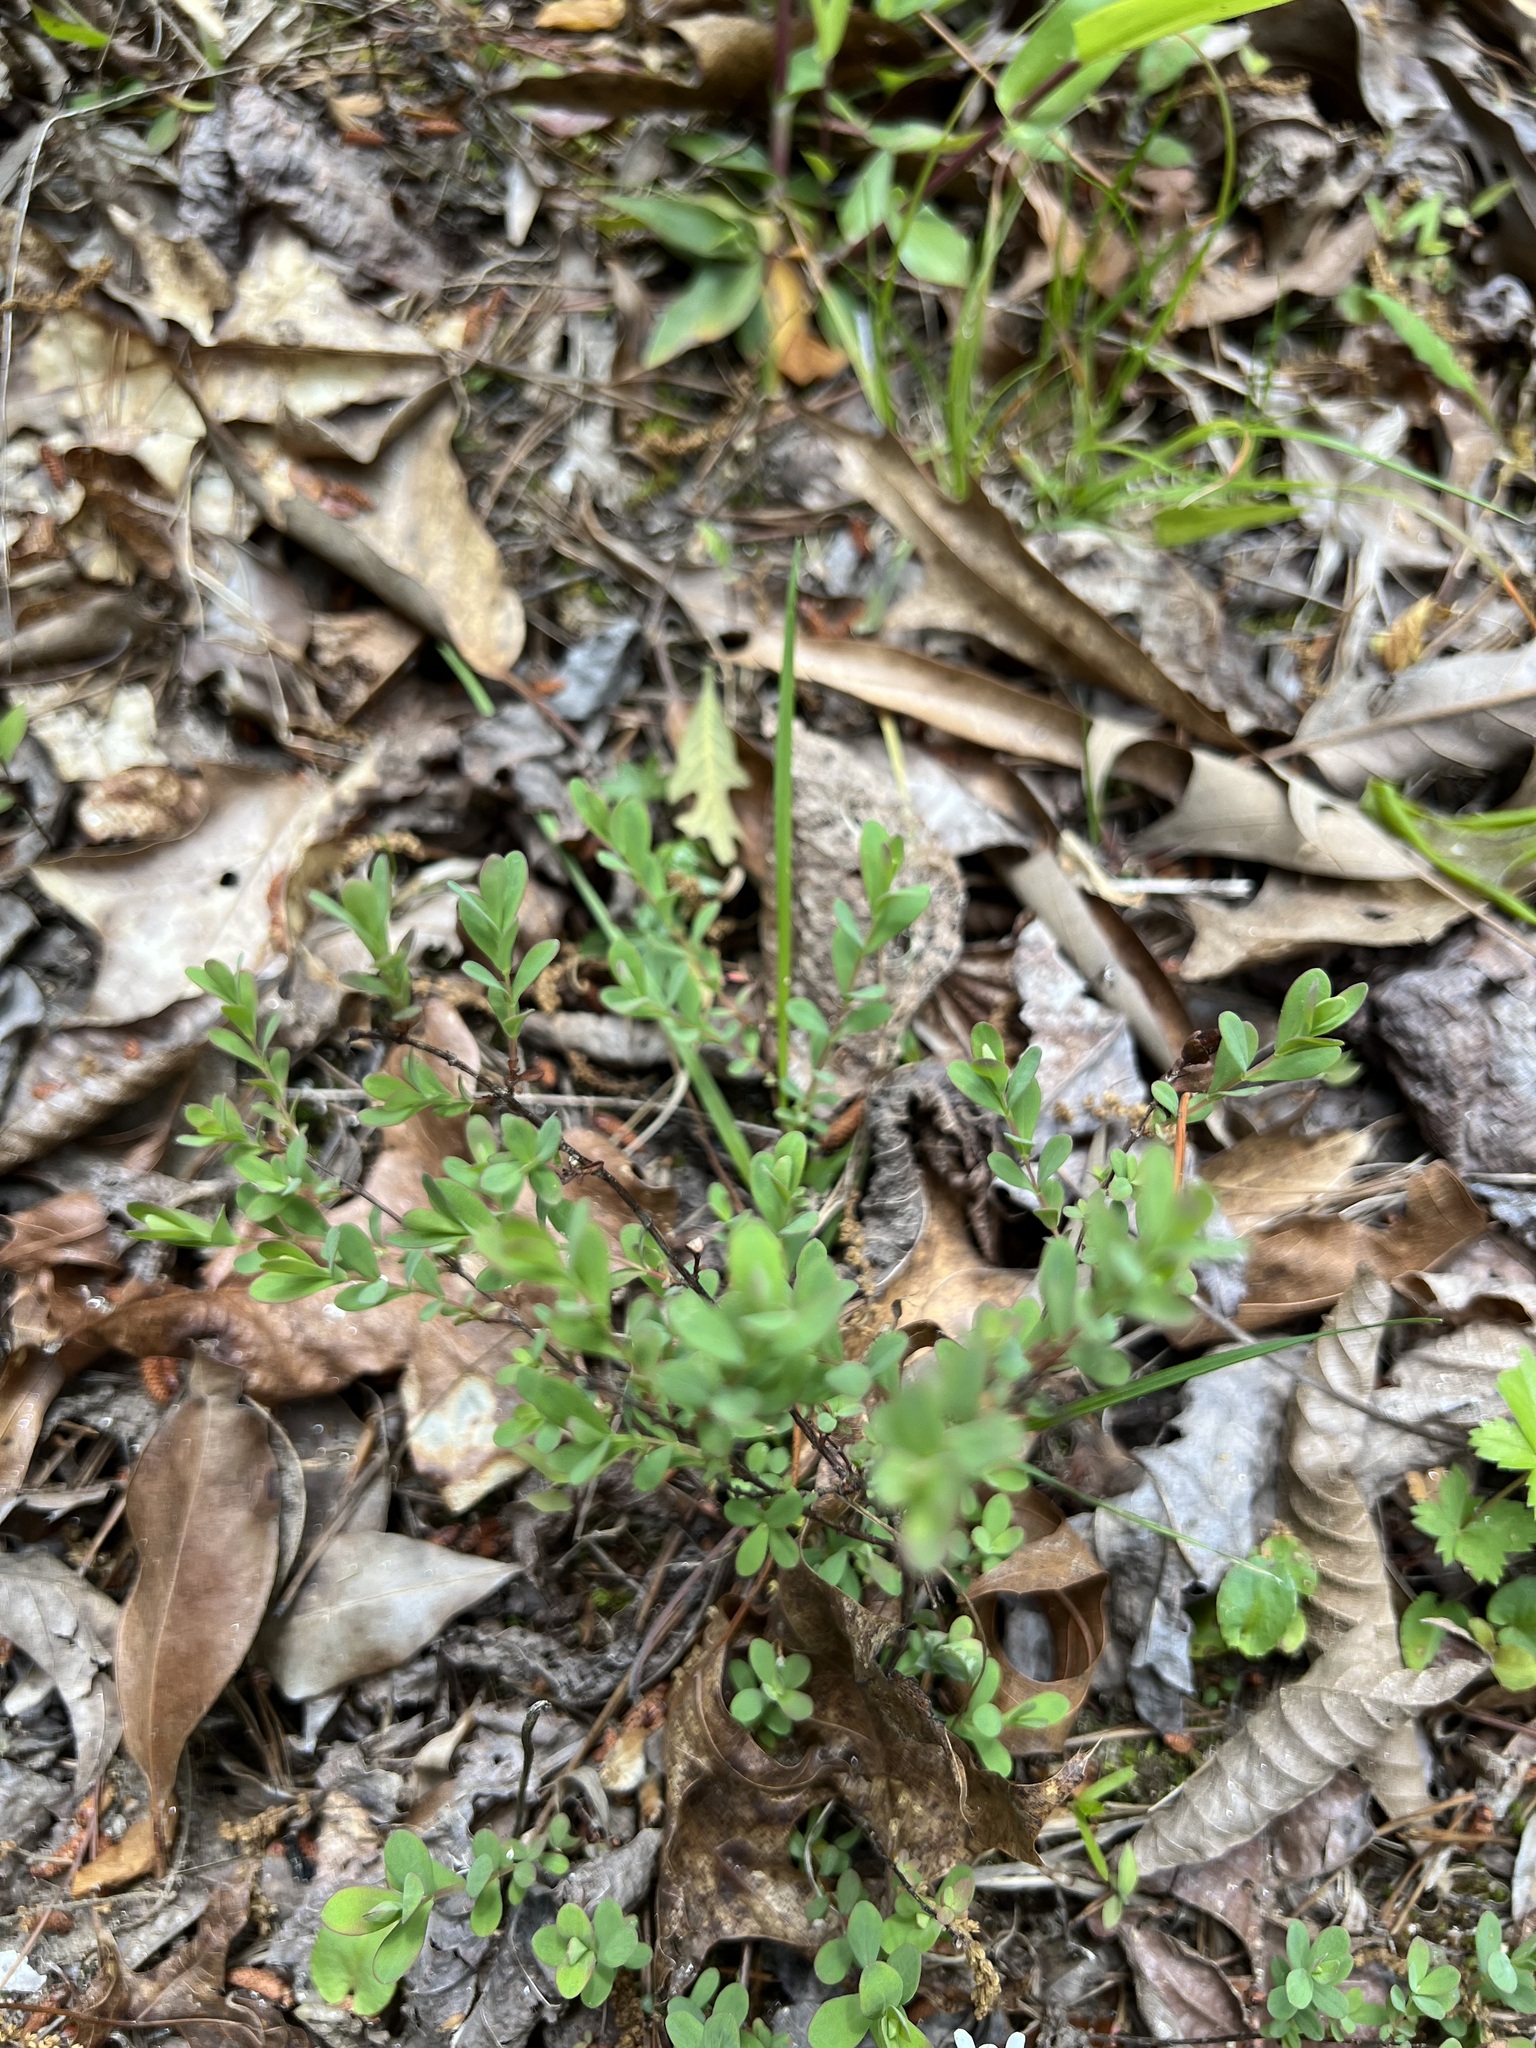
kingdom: Plantae
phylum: Tracheophyta
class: Magnoliopsida
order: Malpighiales
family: Hypericaceae
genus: Hypericum
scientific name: Hypericum hypericoides
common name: St. andrew's cross
